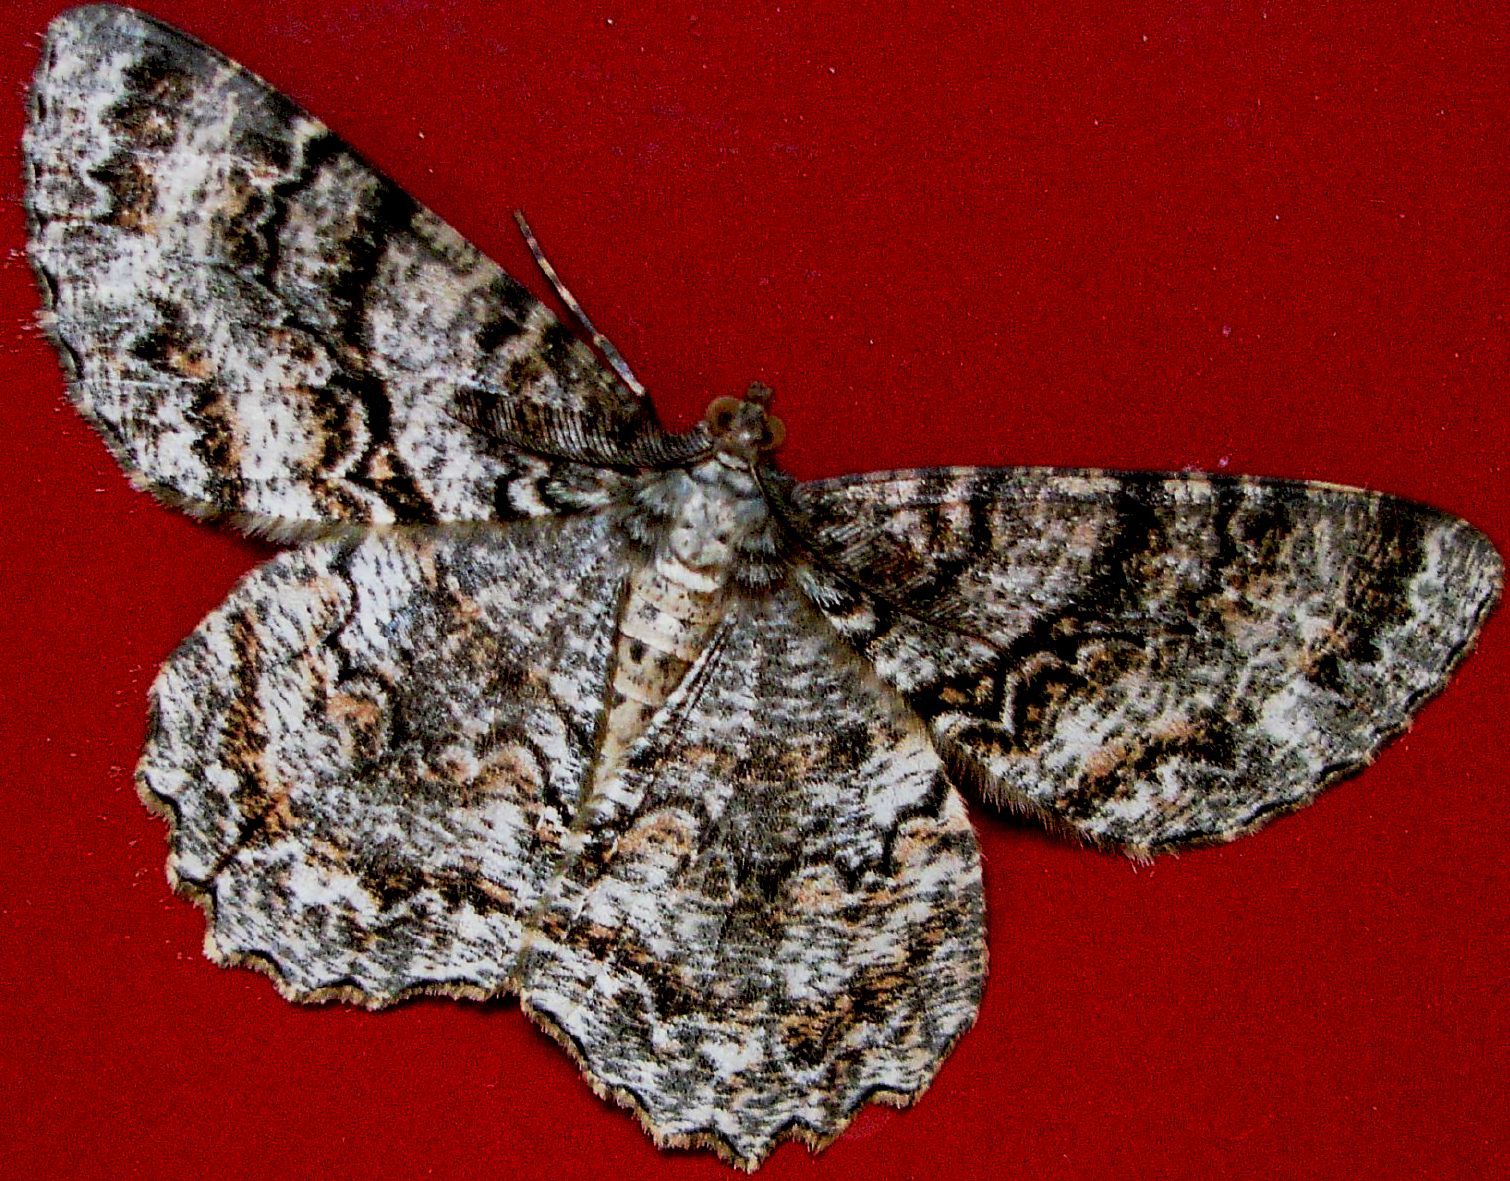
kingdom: Animalia
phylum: Arthropoda
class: Insecta
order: Lepidoptera
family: Geometridae
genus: Epimecis
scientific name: Epimecis hortaria
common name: Tulip-tree beauty
